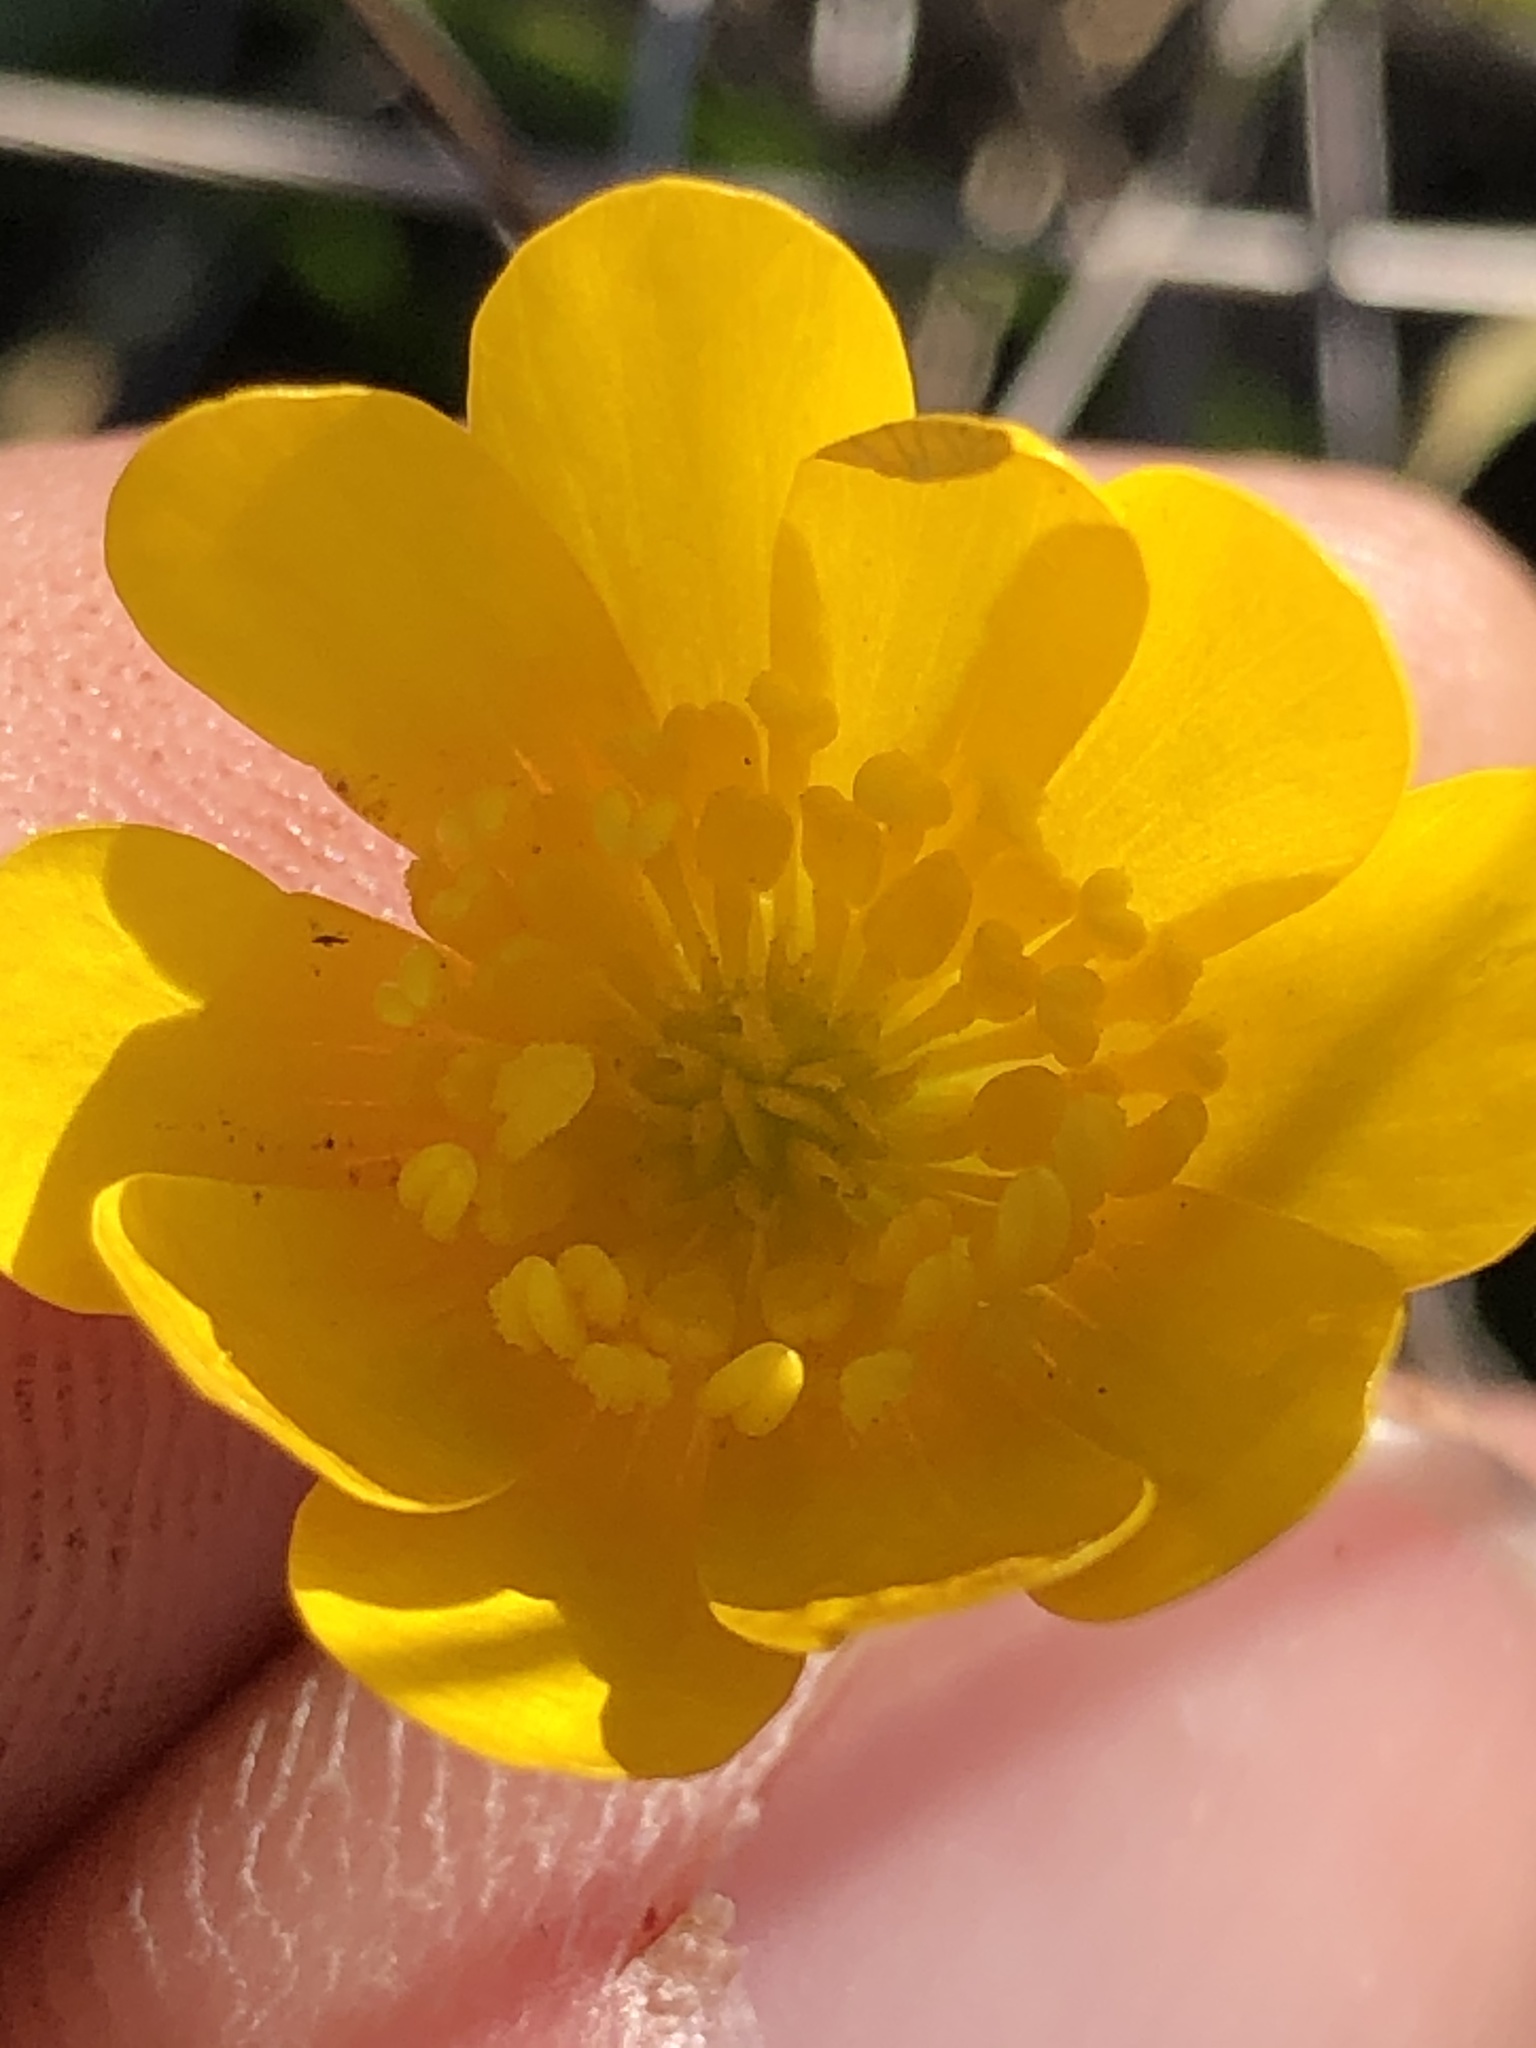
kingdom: Plantae
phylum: Tracheophyta
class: Magnoliopsida
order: Ranunculales
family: Ranunculaceae
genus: Ranunculus
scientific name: Ranunculus californicus
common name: California buttercup
